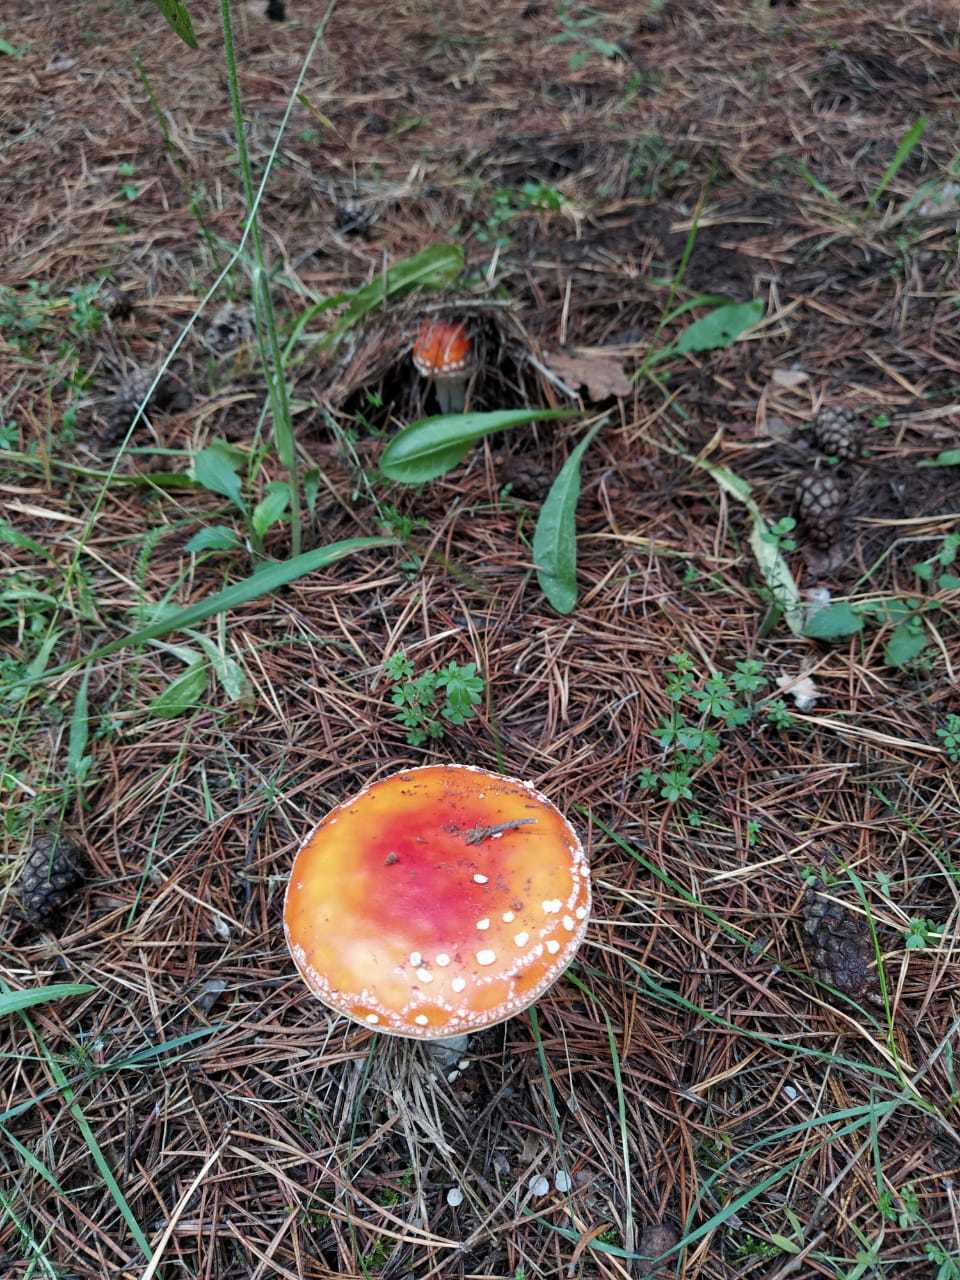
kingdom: Fungi
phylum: Basidiomycota
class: Agaricomycetes
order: Agaricales
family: Amanitaceae
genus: Amanita
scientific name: Amanita muscaria
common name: Fly agaric
